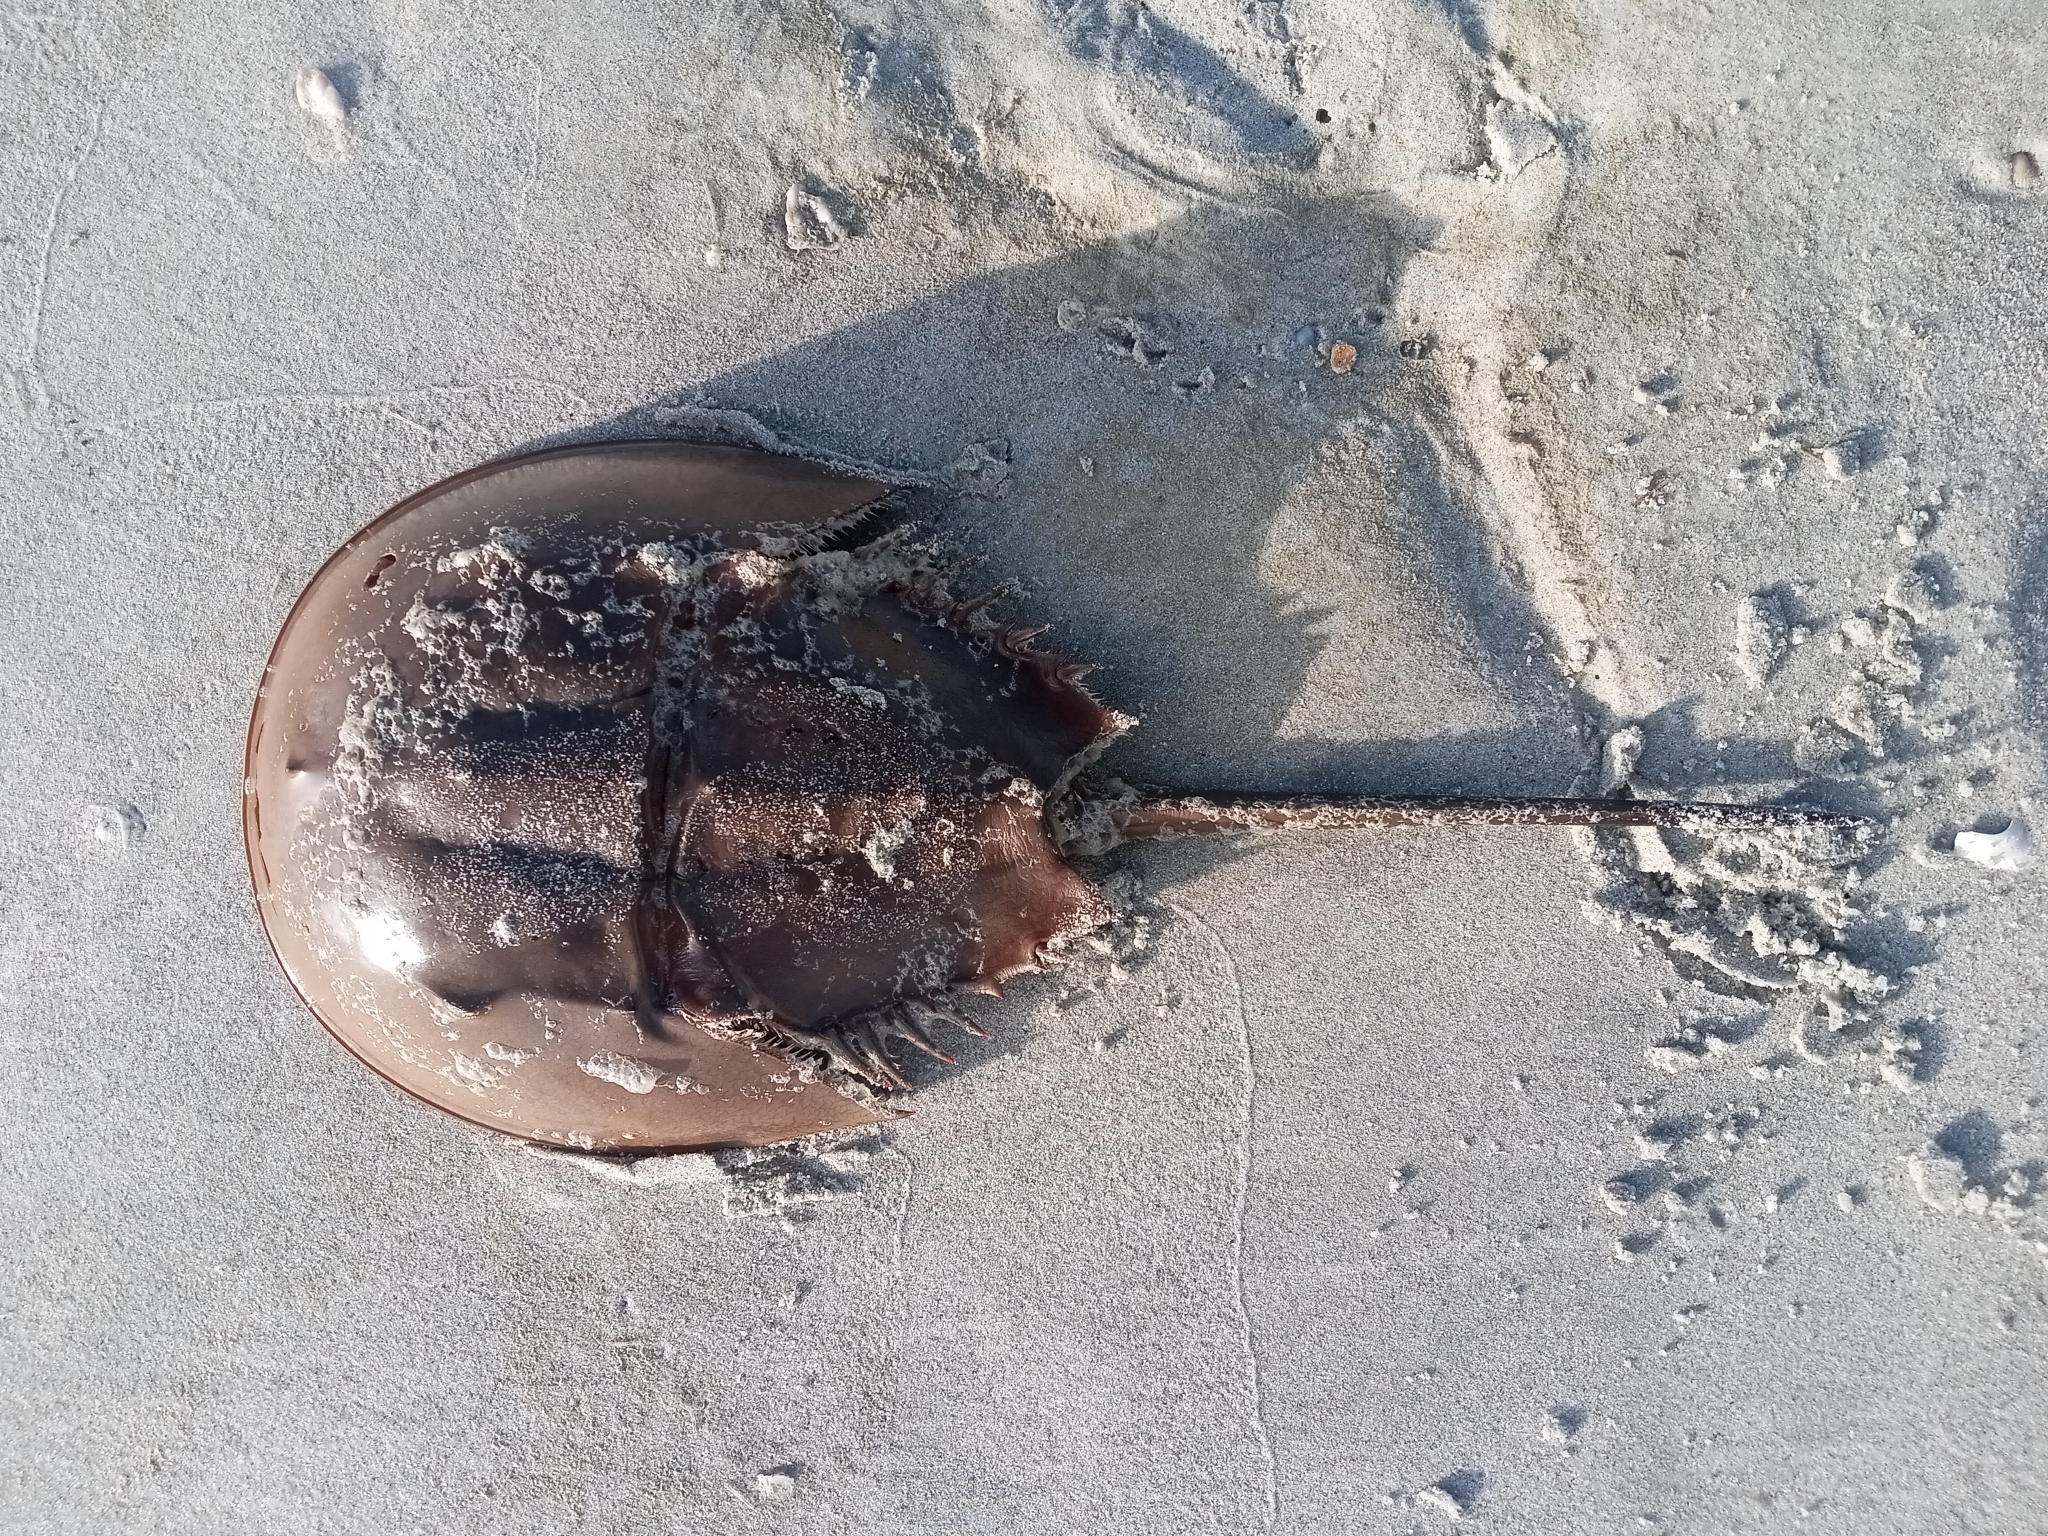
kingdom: Animalia
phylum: Arthropoda
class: Merostomata
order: Xiphosurida
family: Limulidae
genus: Limulus
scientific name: Limulus polyphemus
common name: Horseshoe crab
